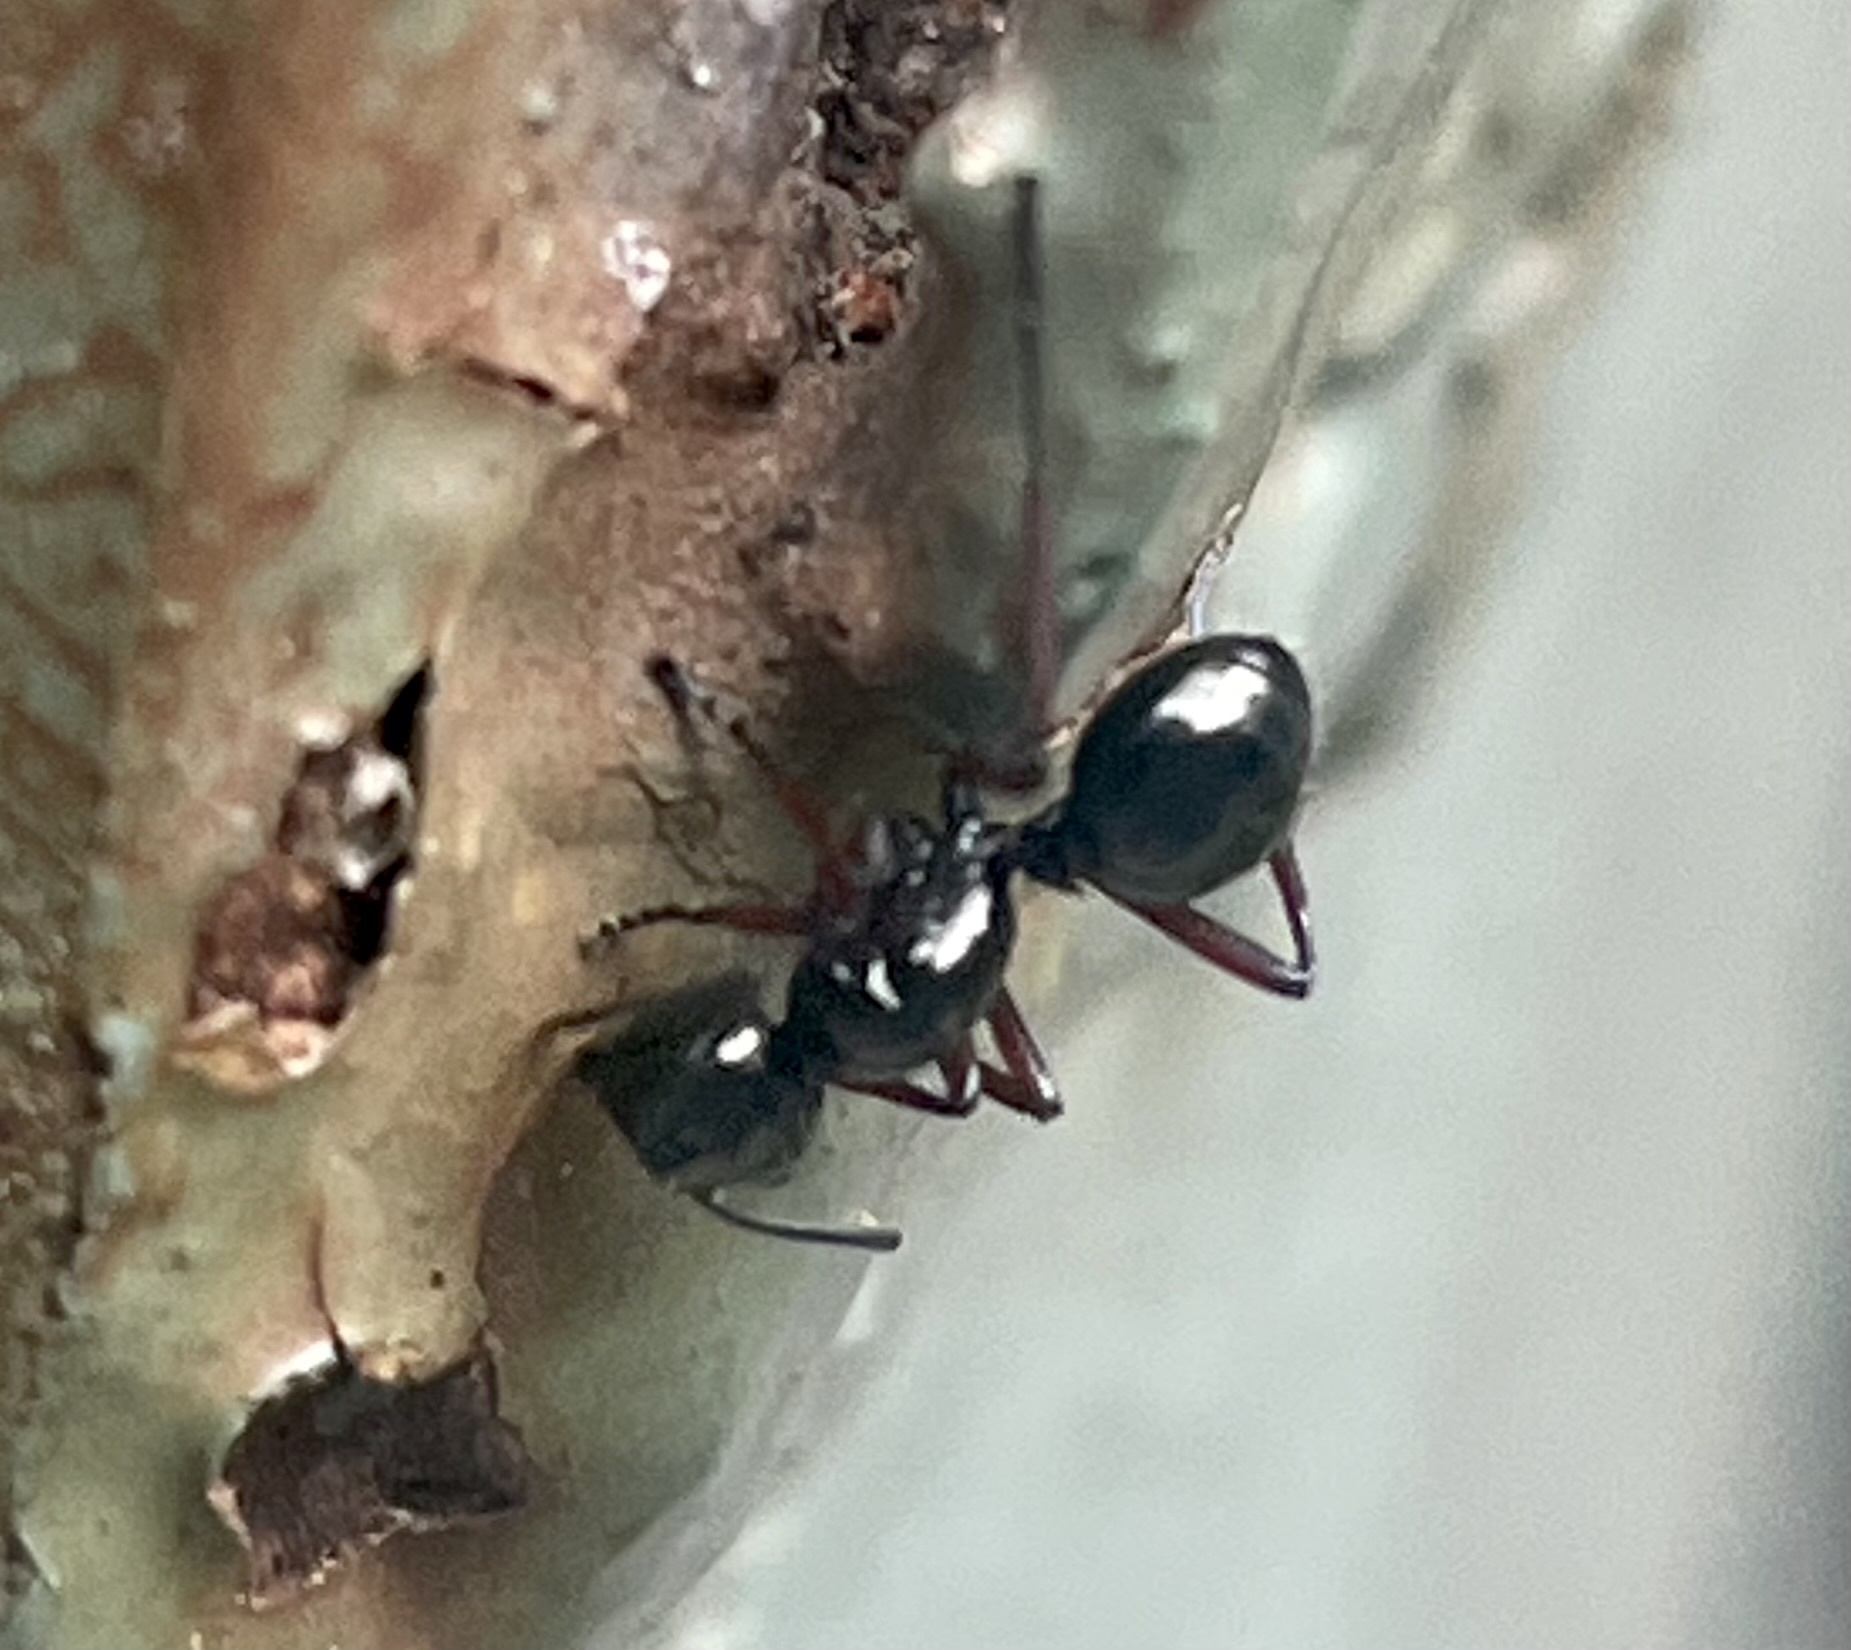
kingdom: Animalia
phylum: Arthropoda
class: Insecta
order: Hymenoptera
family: Formicidae
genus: Polyrhachis
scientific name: Polyrhachis rastellata
